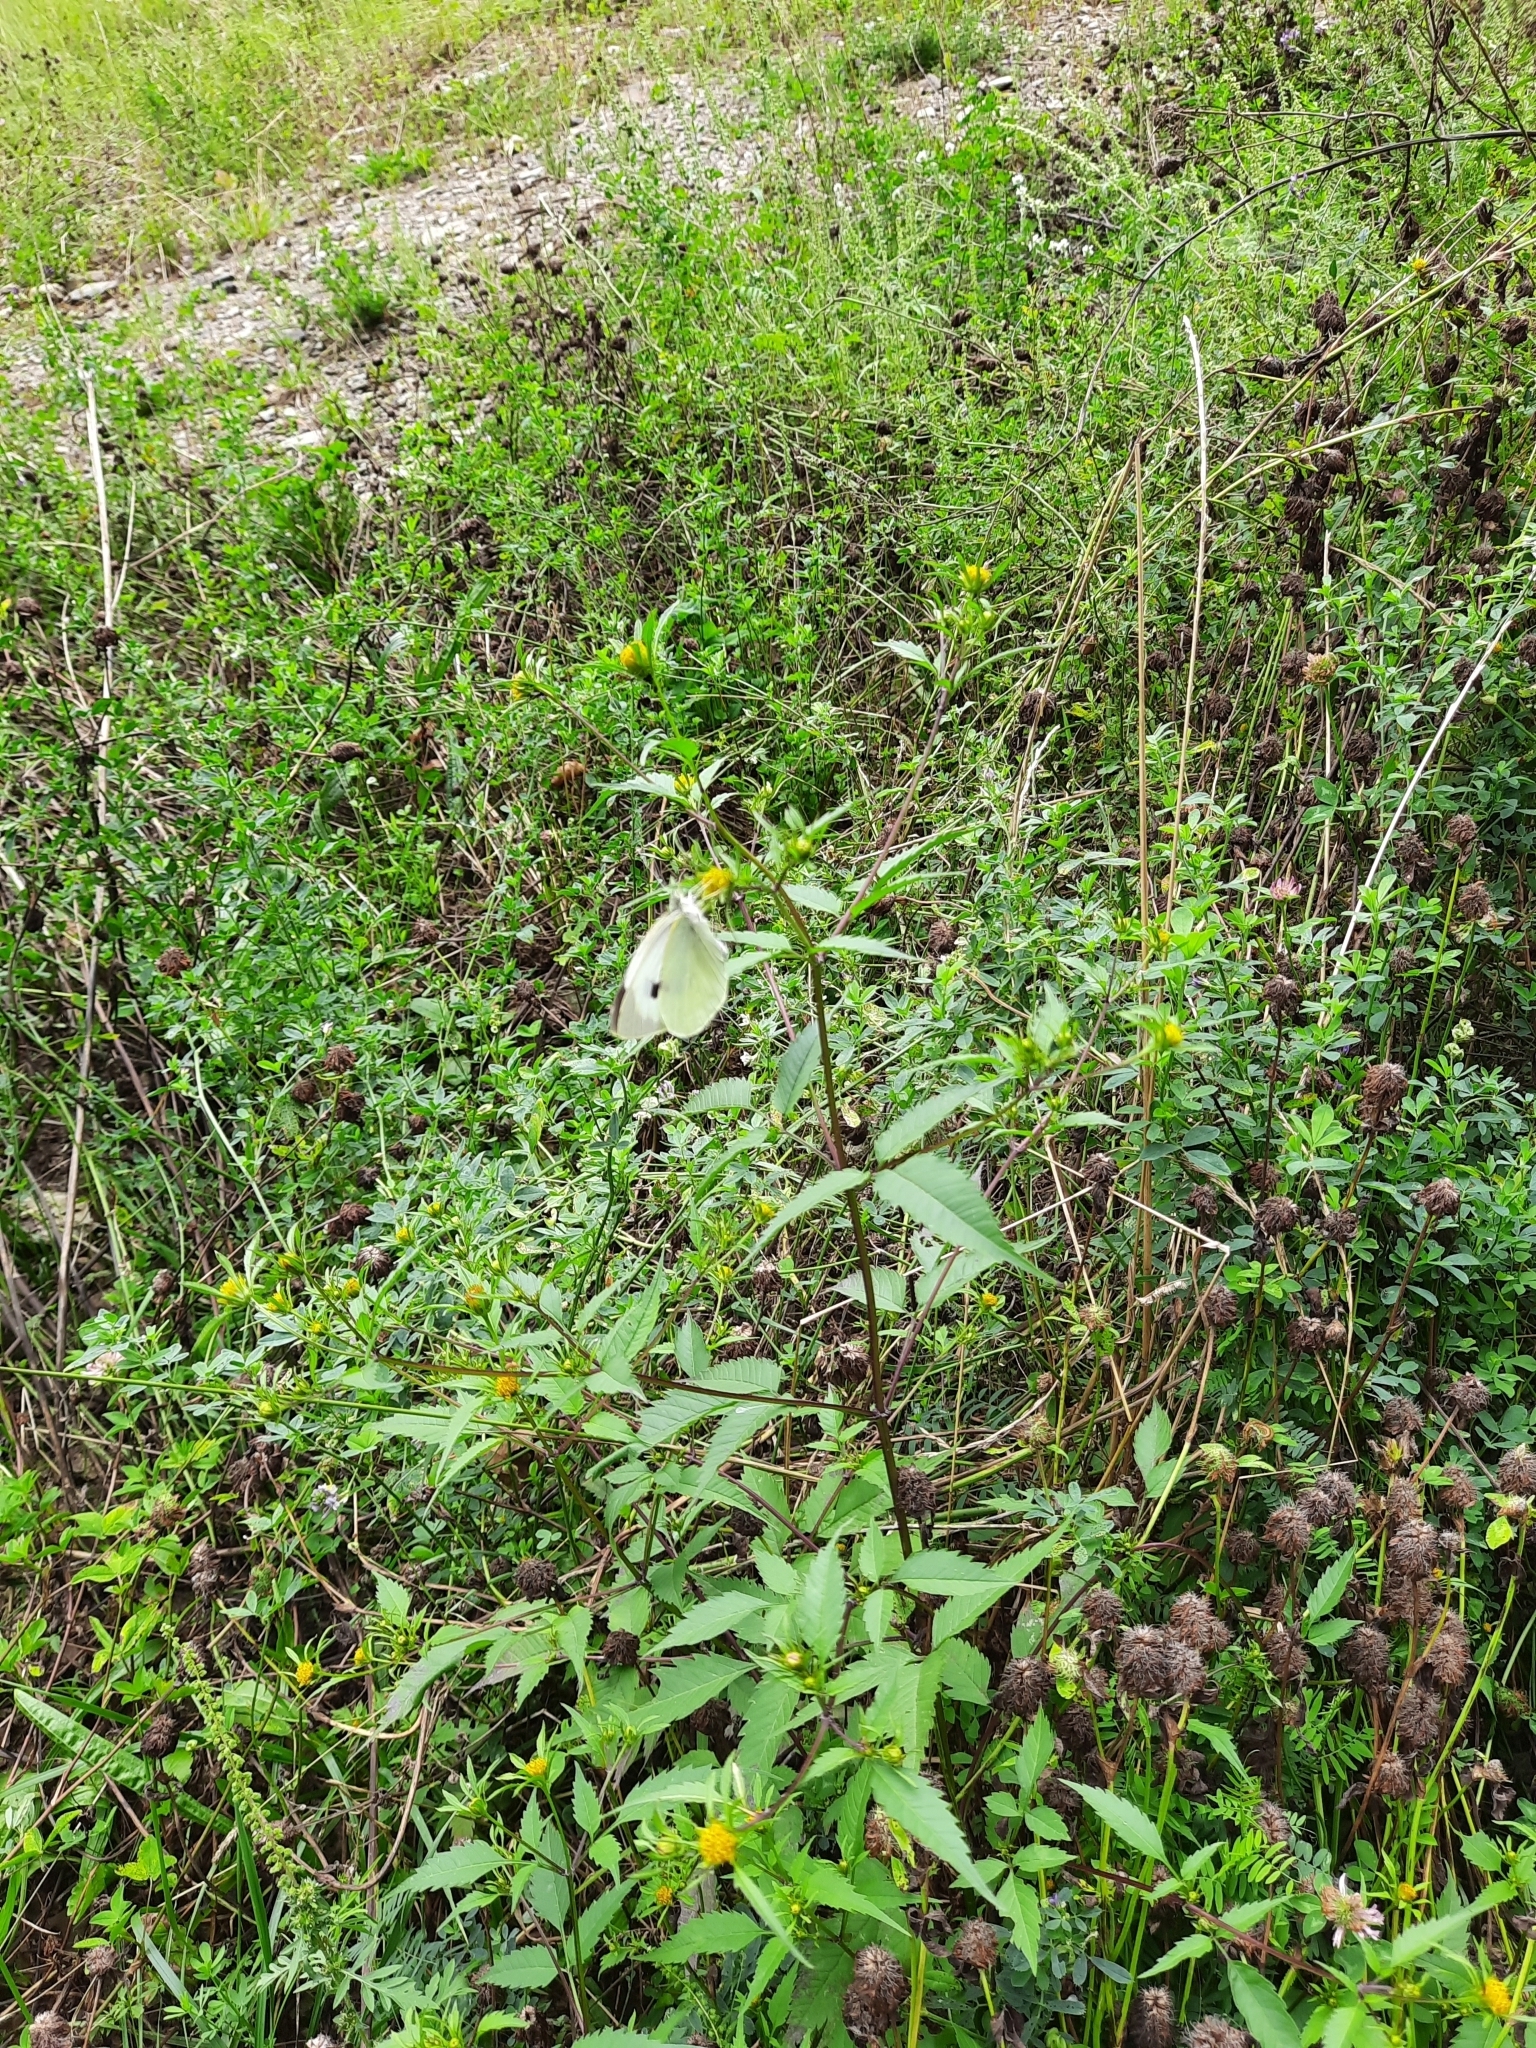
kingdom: Animalia
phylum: Arthropoda
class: Insecta
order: Lepidoptera
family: Pieridae
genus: Pieris
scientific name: Pieris brassicae
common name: Large white
